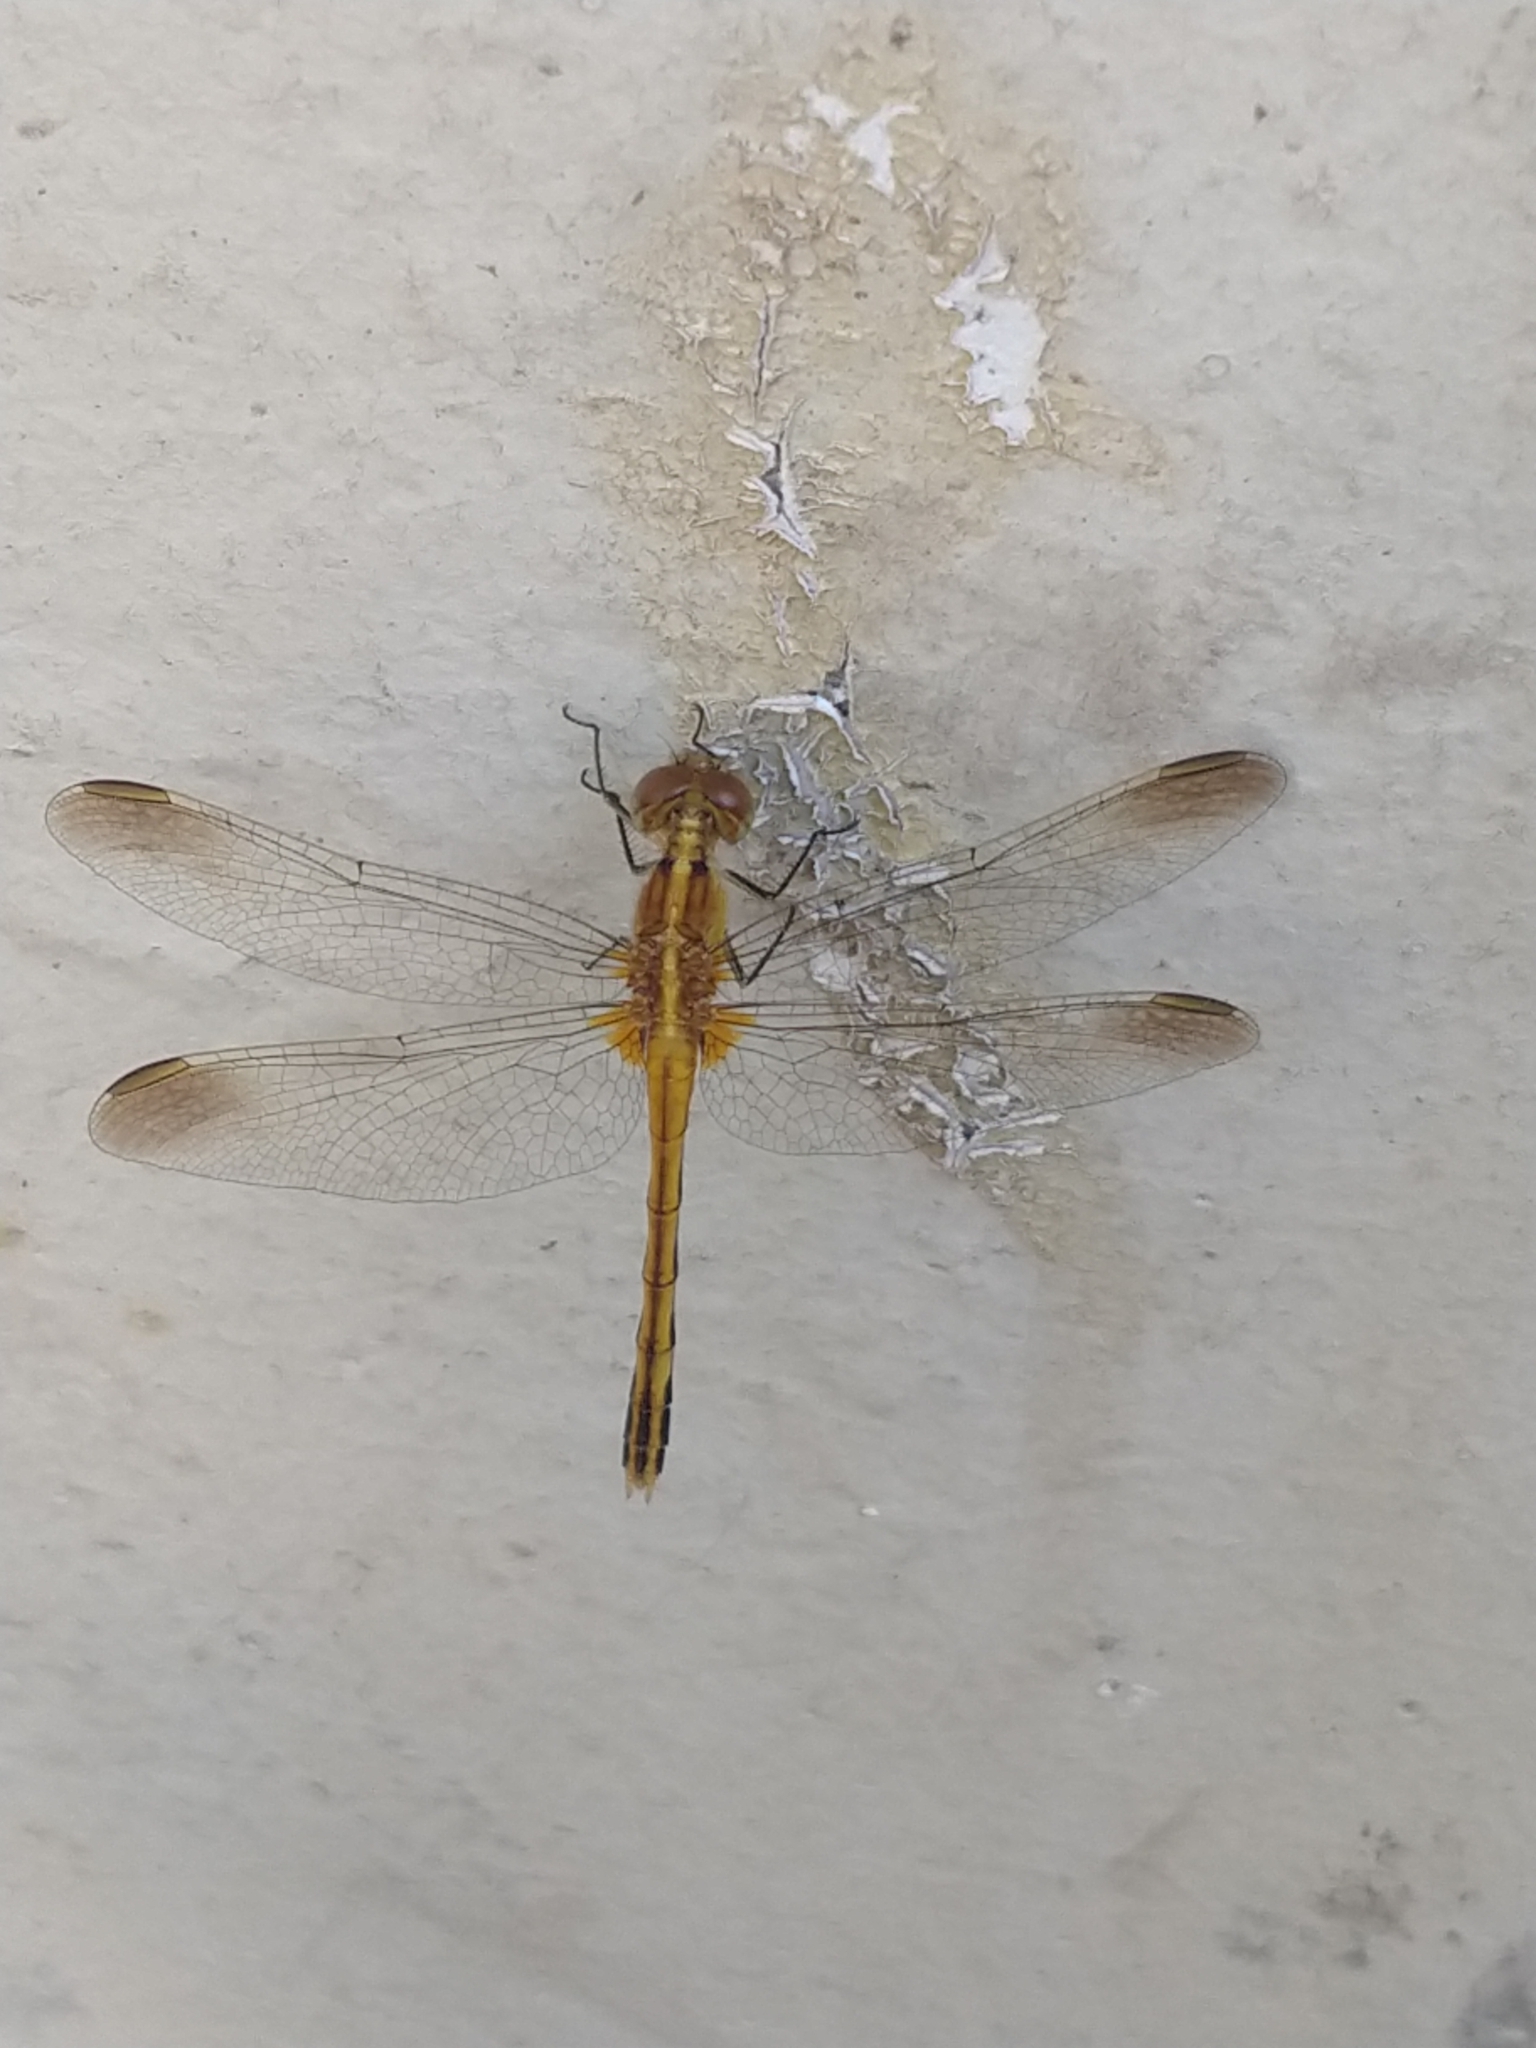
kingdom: Animalia
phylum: Arthropoda
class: Insecta
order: Odonata
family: Libellulidae
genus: Erythrodiplax
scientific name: Erythrodiplax nigricans
